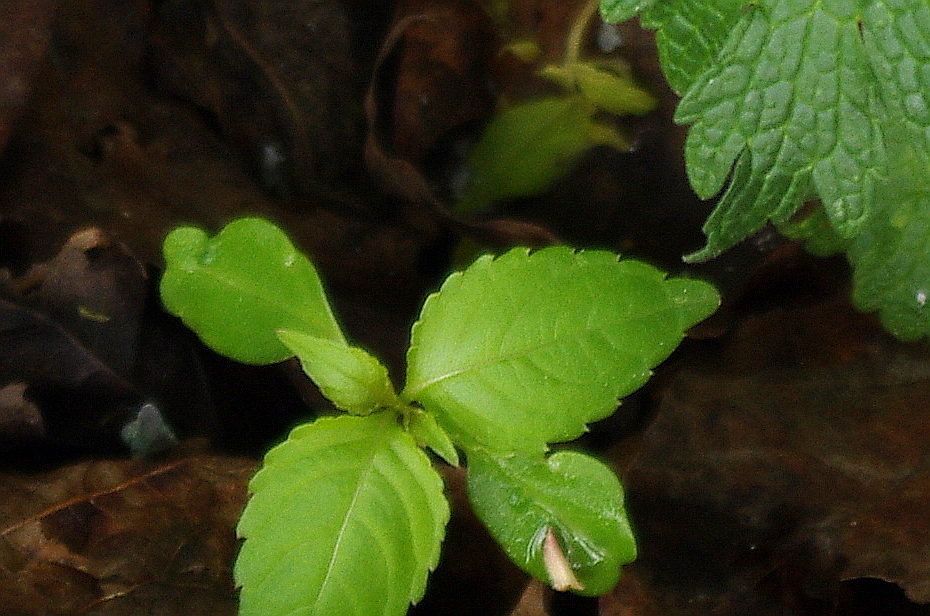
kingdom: Plantae
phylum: Tracheophyta
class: Magnoliopsida
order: Ericales
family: Balsaminaceae
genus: Impatiens
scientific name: Impatiens parviflora
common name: Small balsam
